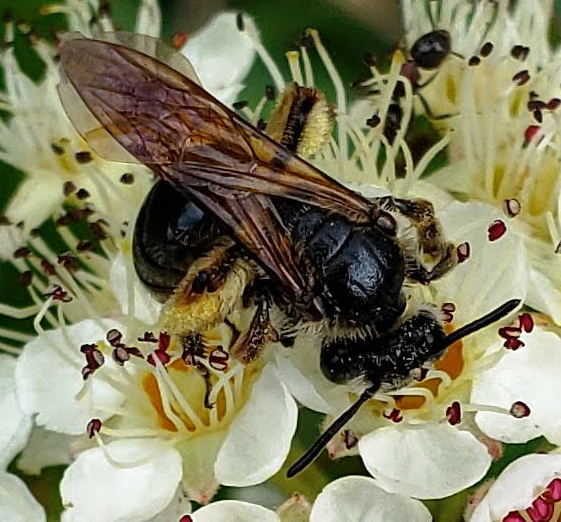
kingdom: Animalia
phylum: Arthropoda
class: Insecta
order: Hymenoptera
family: Andrenidae
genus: Andrena
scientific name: Andrena
